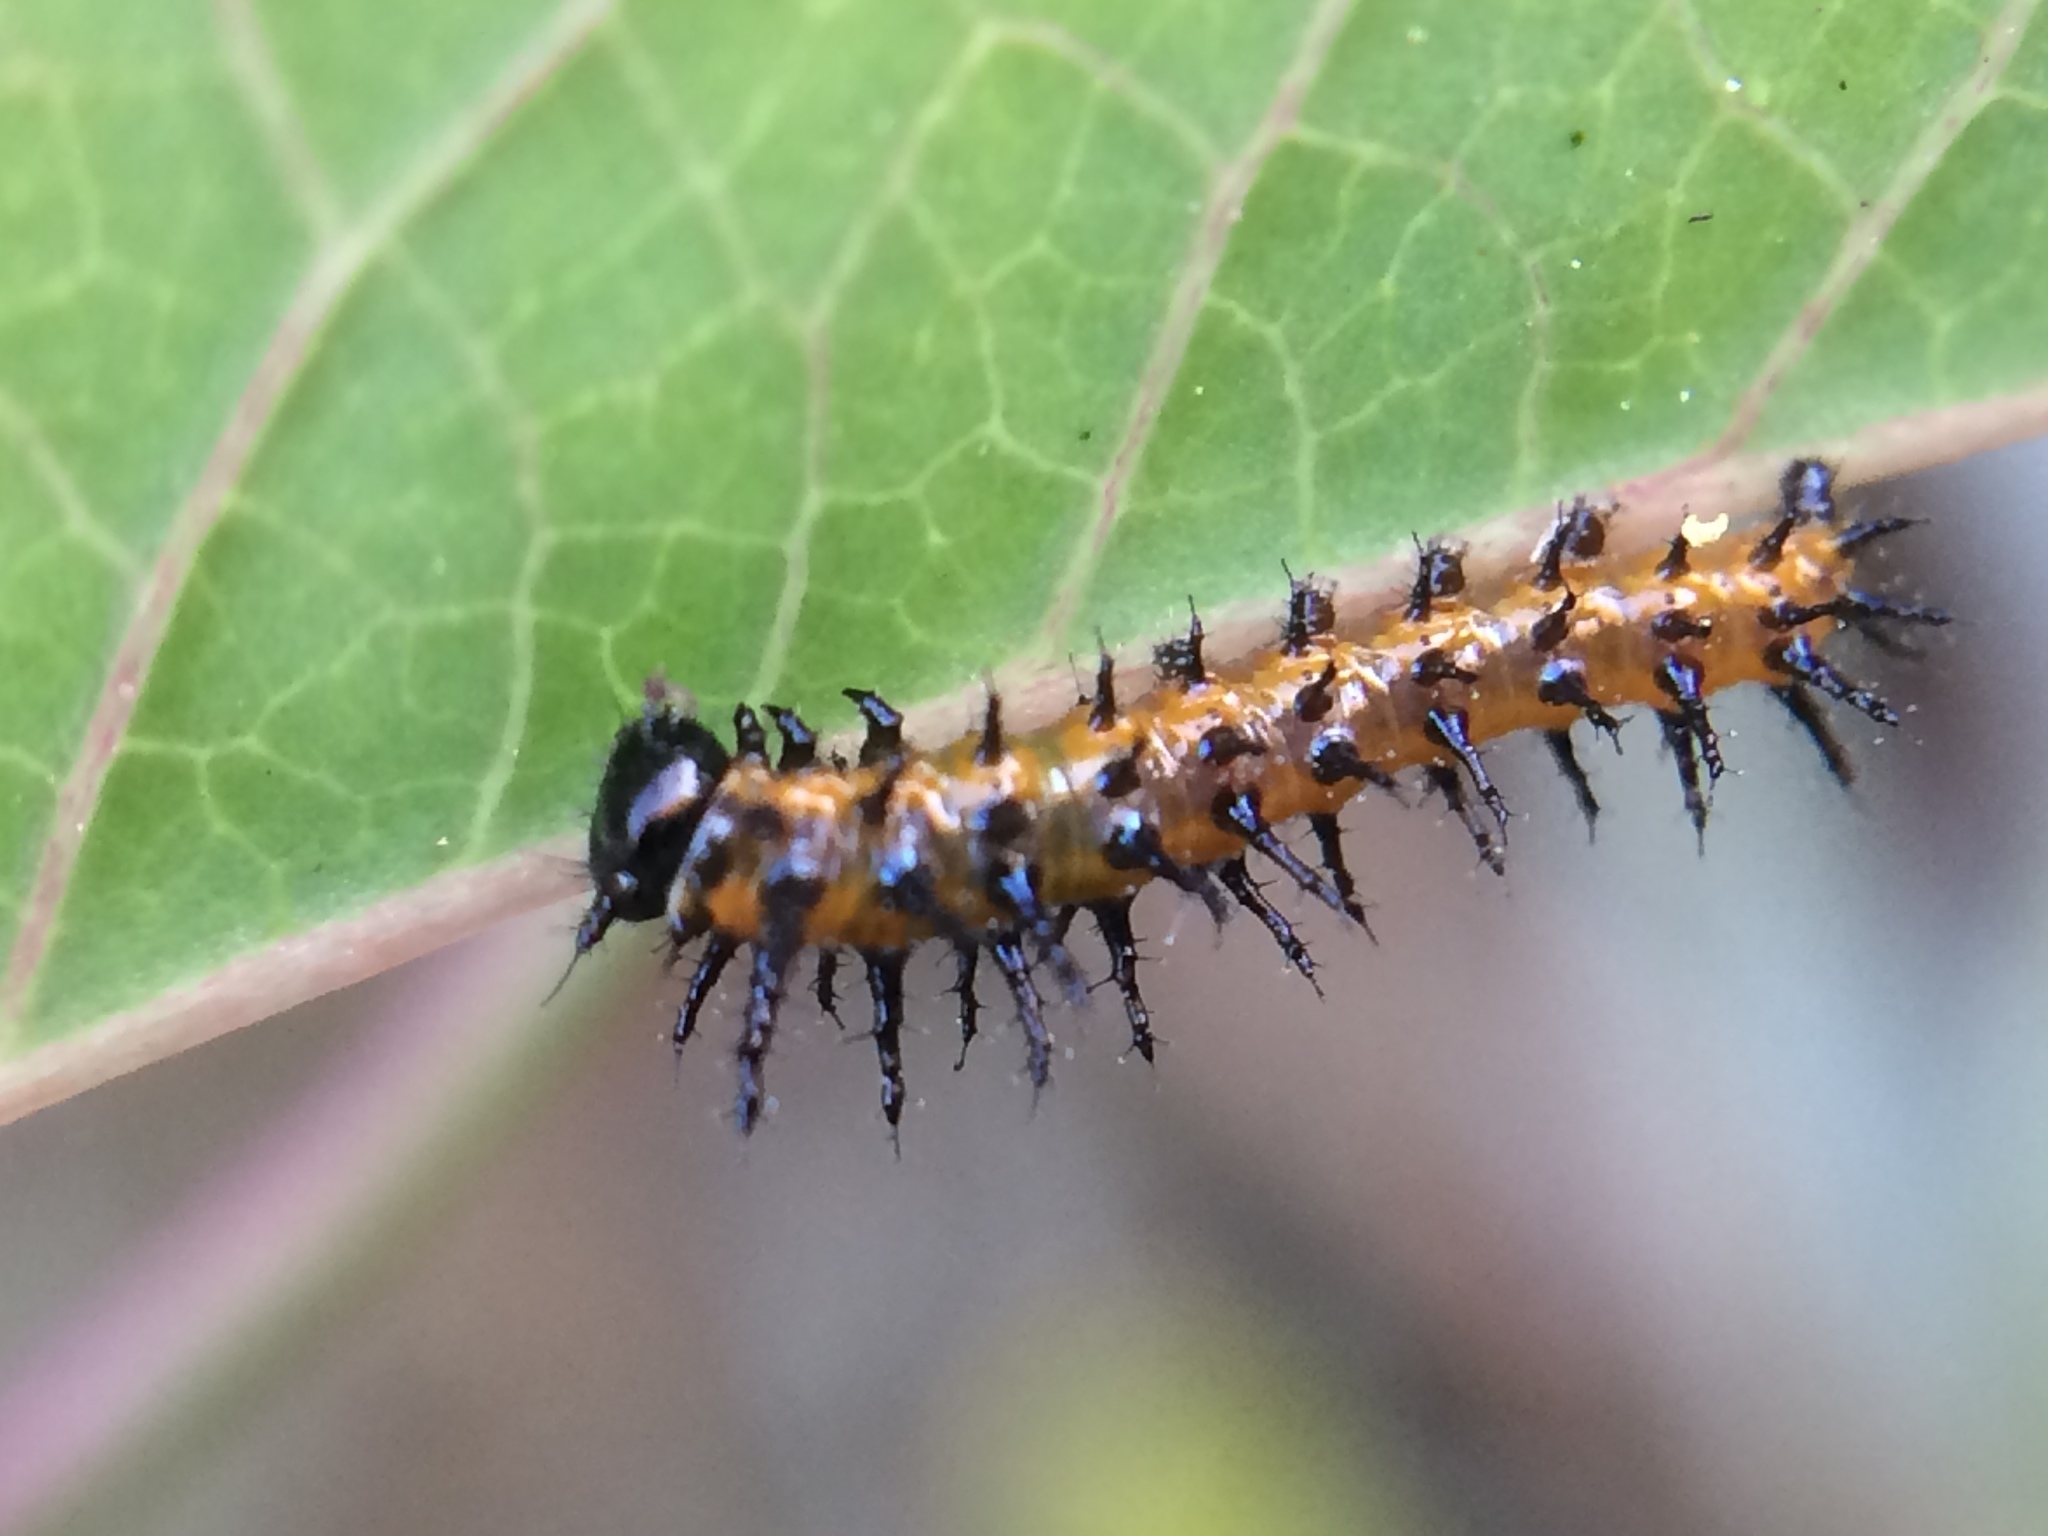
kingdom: Animalia
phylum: Arthropoda
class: Insecta
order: Lepidoptera
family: Nymphalidae
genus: Dione
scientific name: Dione vanillae
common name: Gulf fritillary
